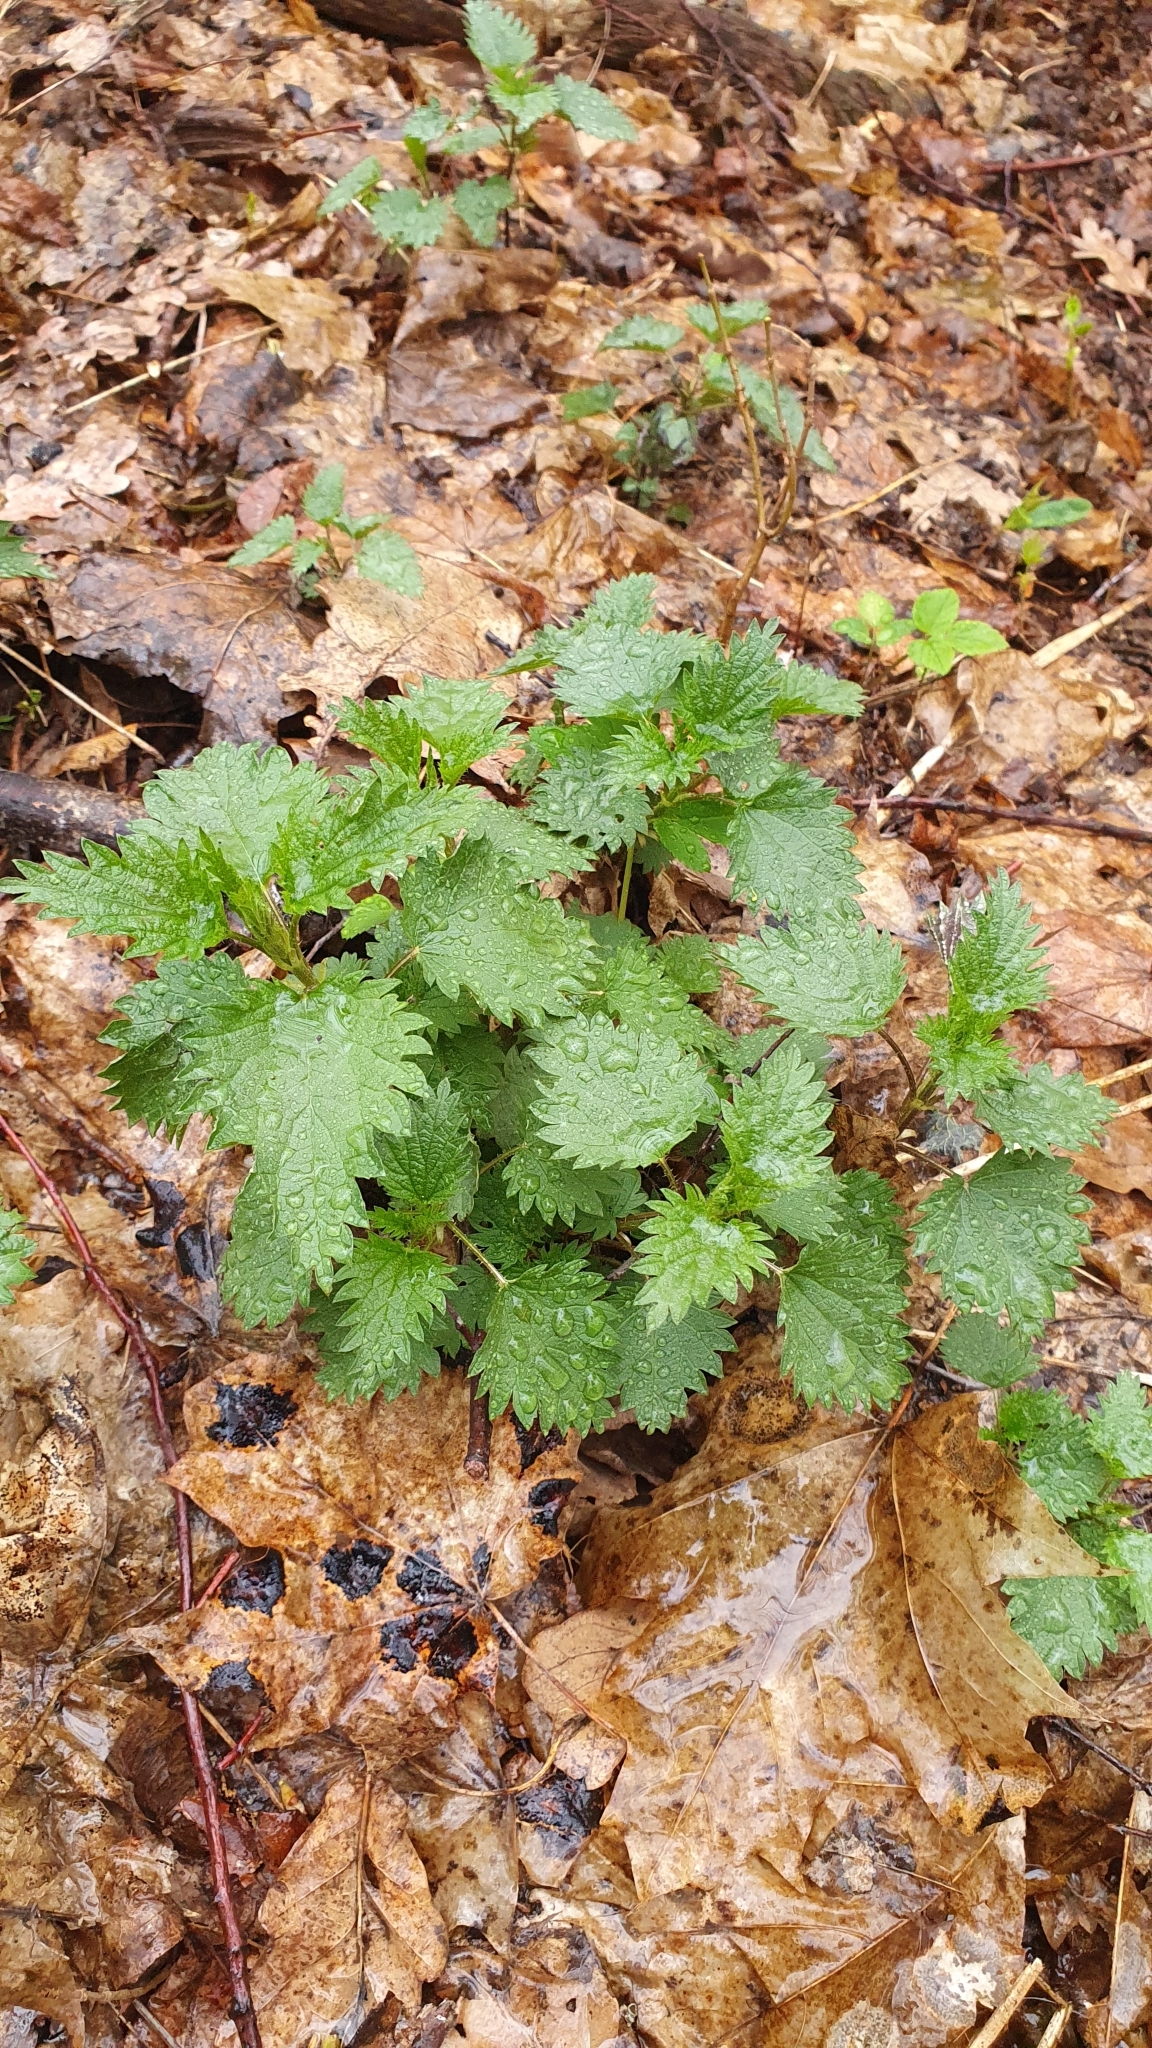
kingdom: Plantae
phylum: Tracheophyta
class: Magnoliopsida
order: Rosales
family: Urticaceae
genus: Urtica
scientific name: Urtica dioica
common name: Common nettle
